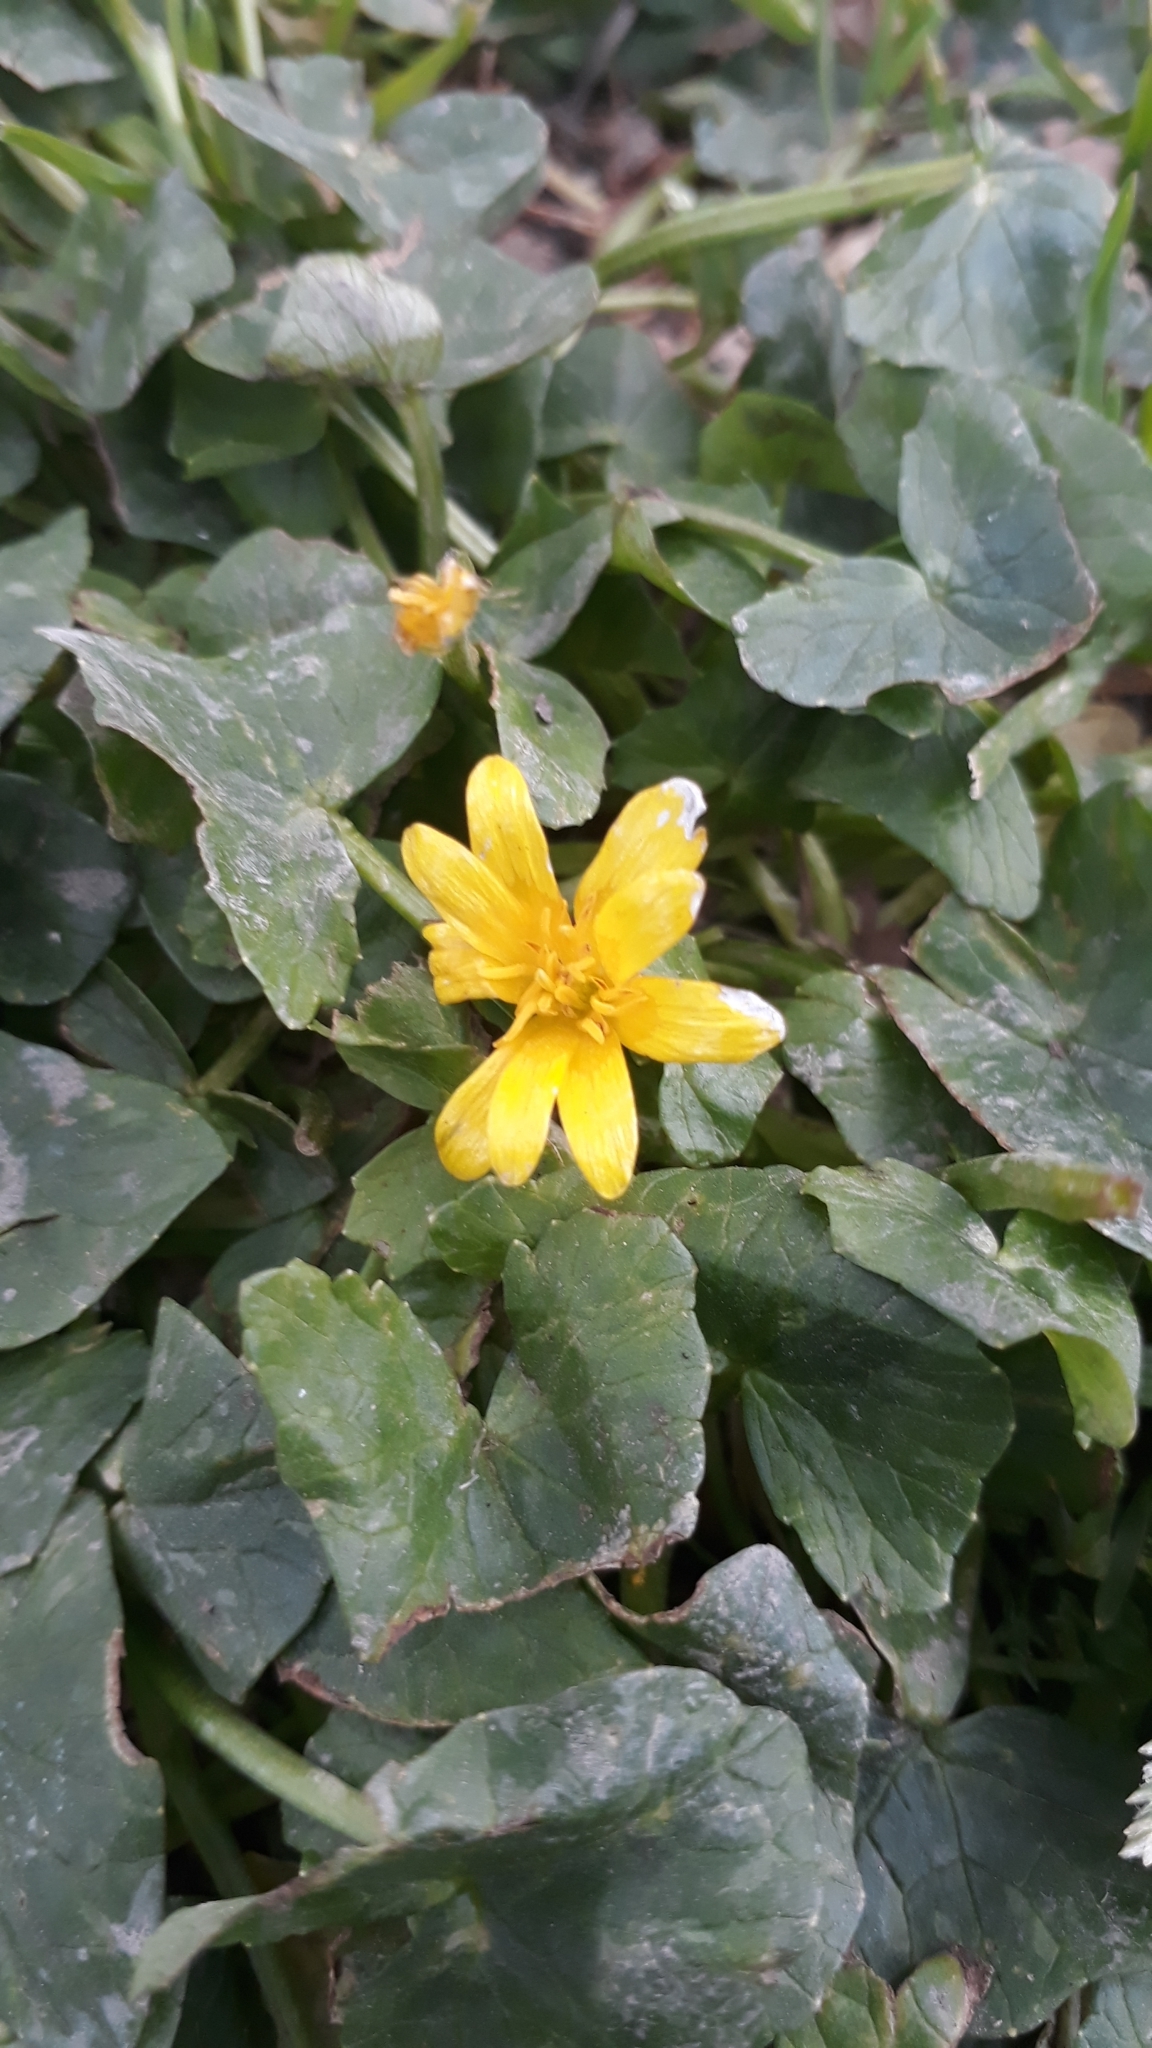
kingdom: Plantae
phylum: Tracheophyta
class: Magnoliopsida
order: Ranunculales
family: Ranunculaceae
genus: Ficaria
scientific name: Ficaria verna
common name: Lesser celandine
